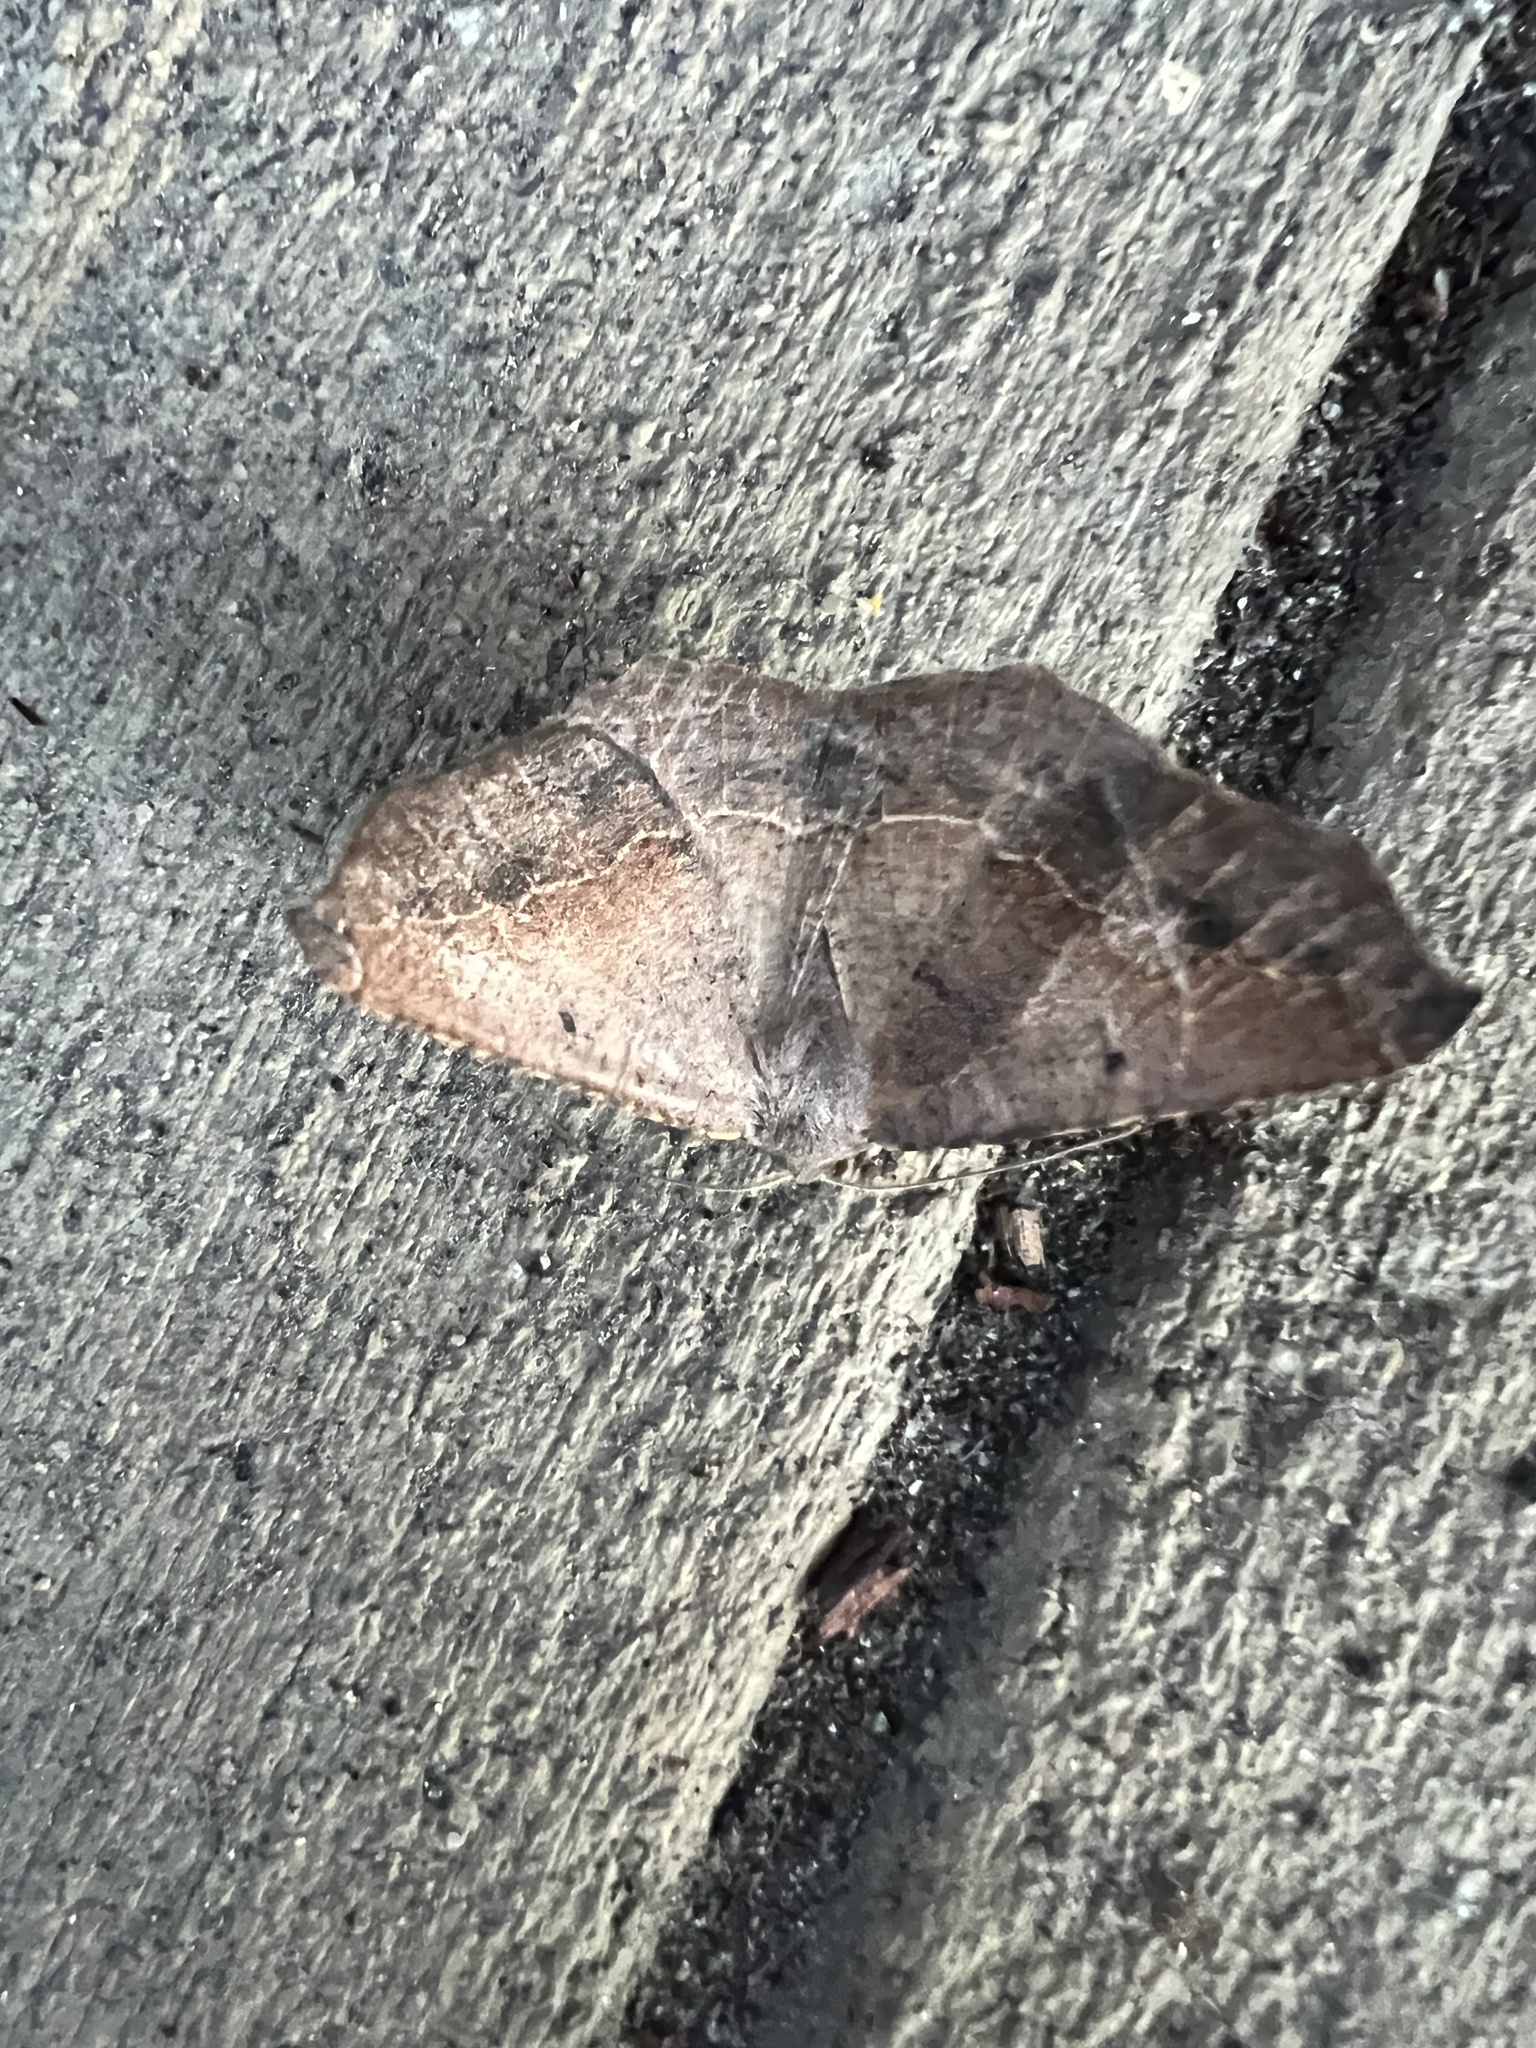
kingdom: Animalia
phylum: Arthropoda
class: Insecta
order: Lepidoptera
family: Geometridae
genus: Prochoerodes
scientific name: Prochoerodes forficaria
